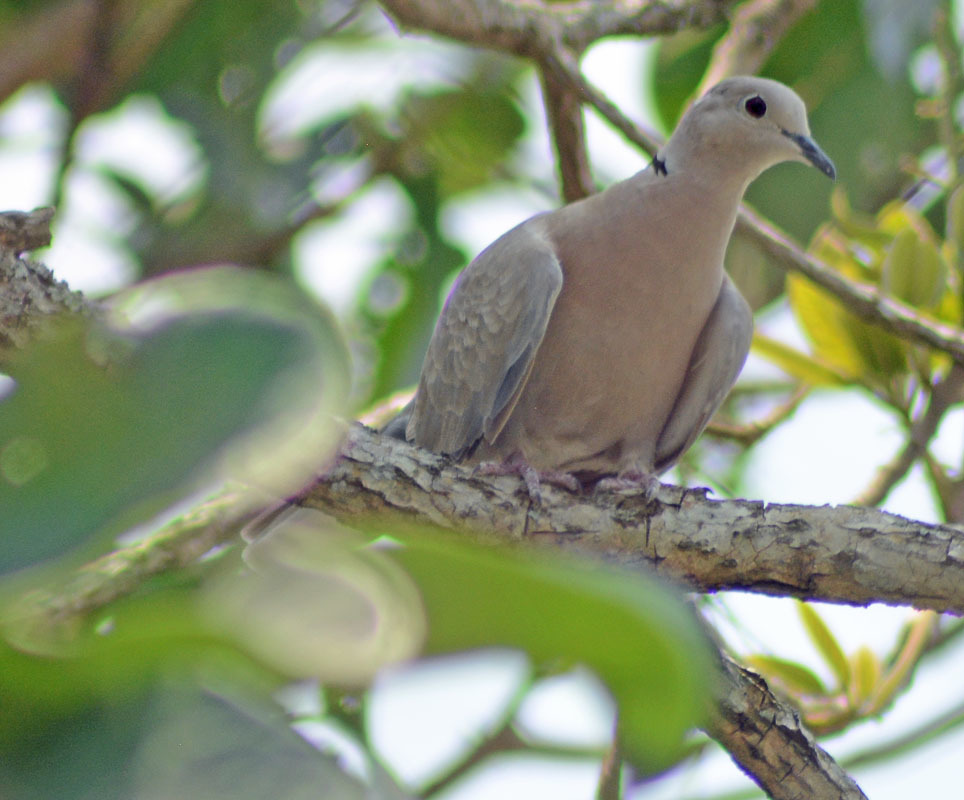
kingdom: Animalia
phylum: Chordata
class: Aves
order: Columbiformes
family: Columbidae
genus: Streptopelia
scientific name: Streptopelia decaocto
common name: Eurasian collared dove
